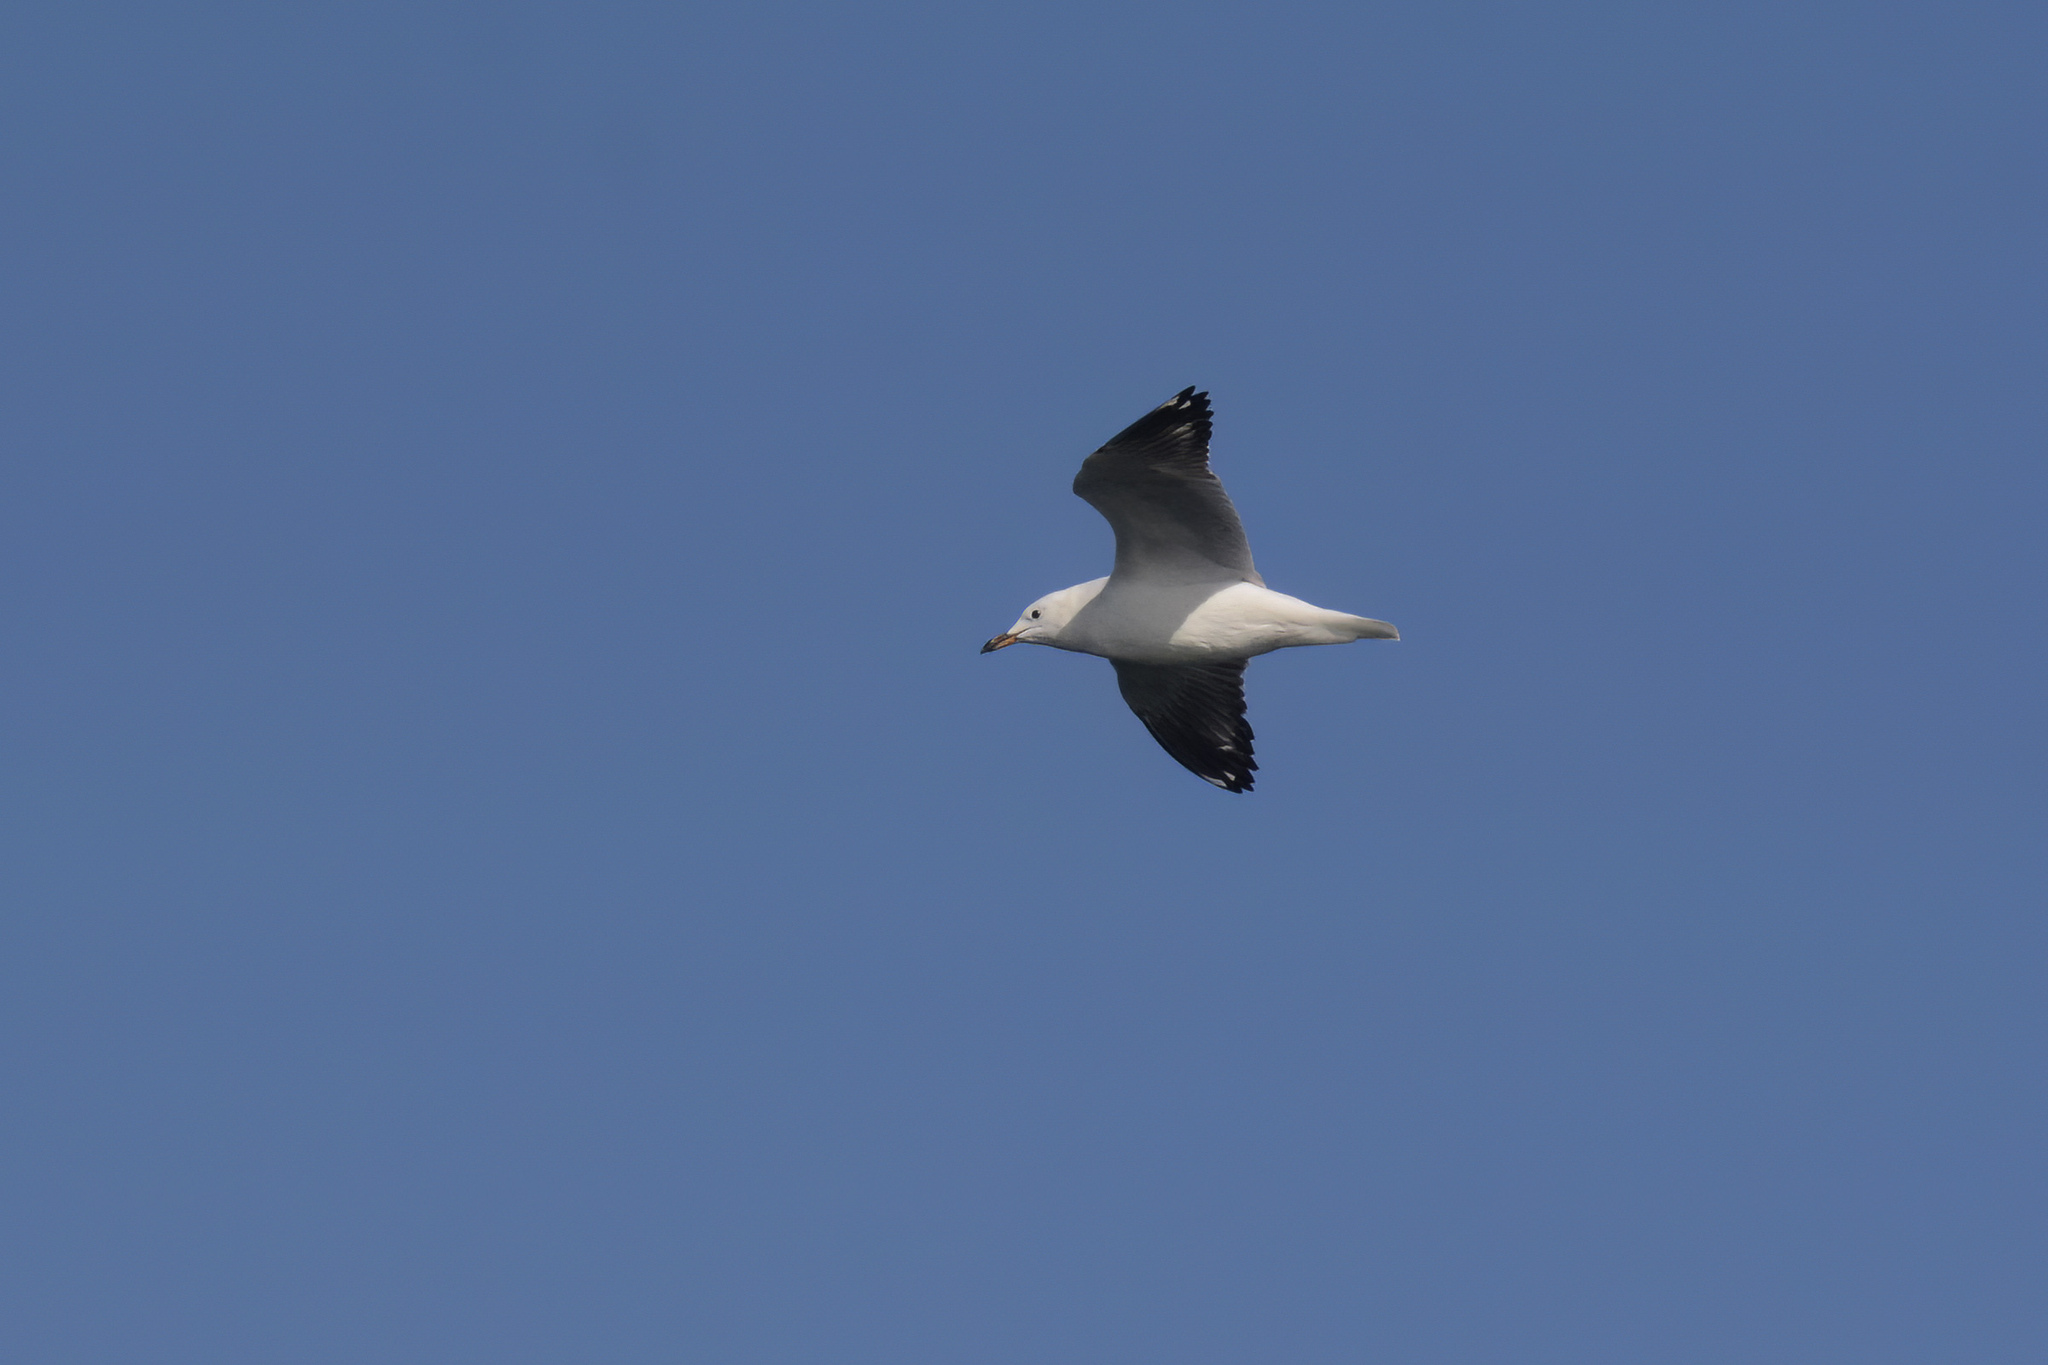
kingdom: Animalia
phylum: Chordata
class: Aves
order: Charadriiformes
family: Laridae
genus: Chroicocephalus
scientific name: Chroicocephalus novaehollandiae
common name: Silver gull
